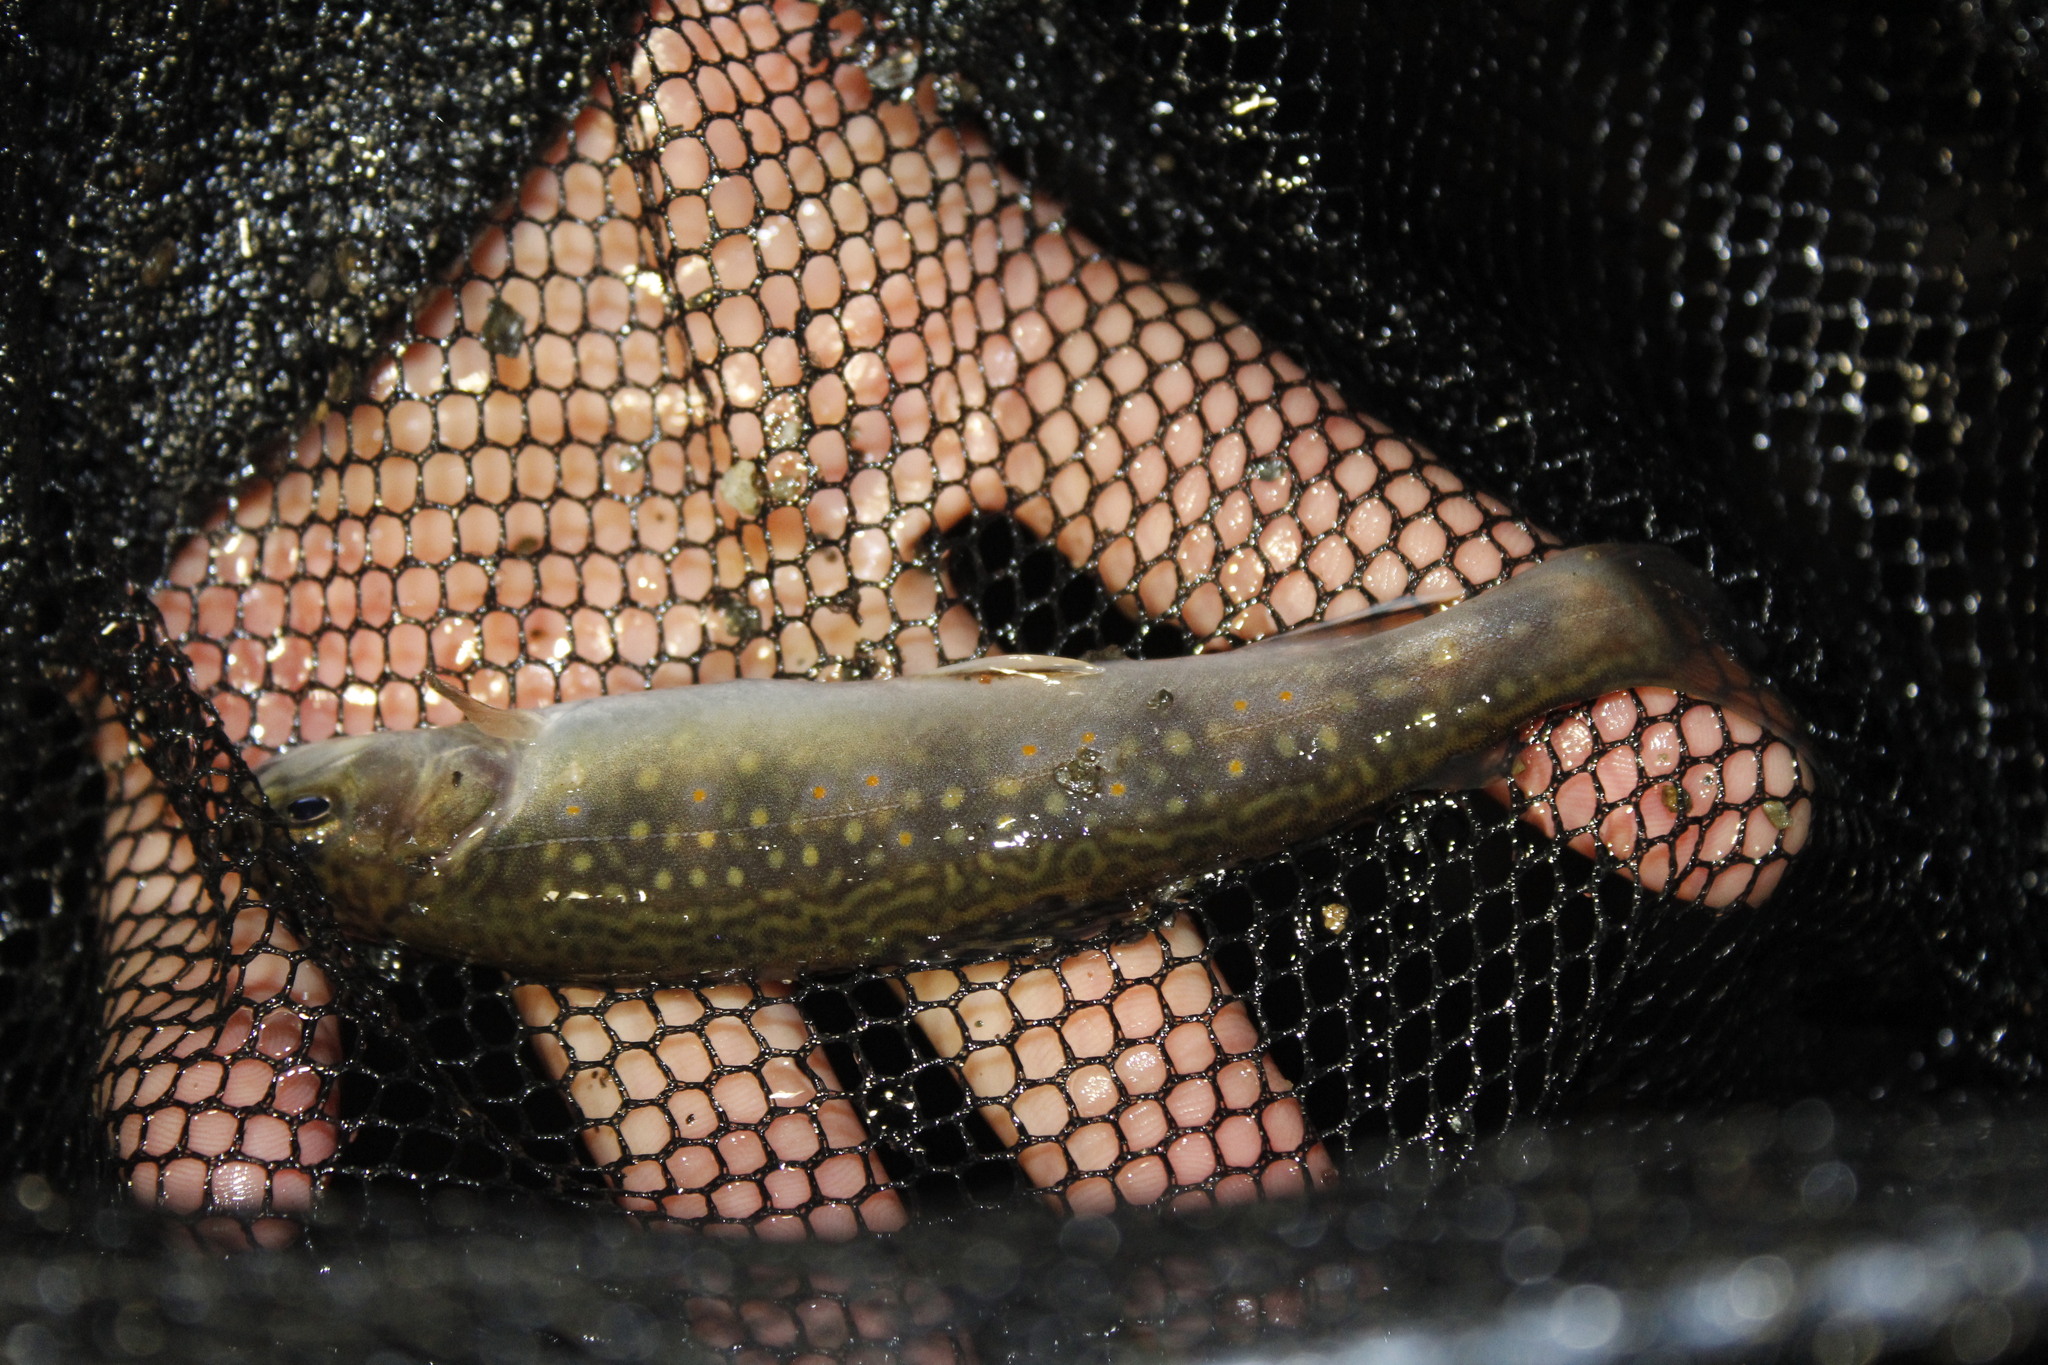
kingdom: Animalia
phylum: Chordata
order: Salmoniformes
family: Salmonidae
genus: Salvelinus
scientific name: Salvelinus fontinalis
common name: Brook trout
